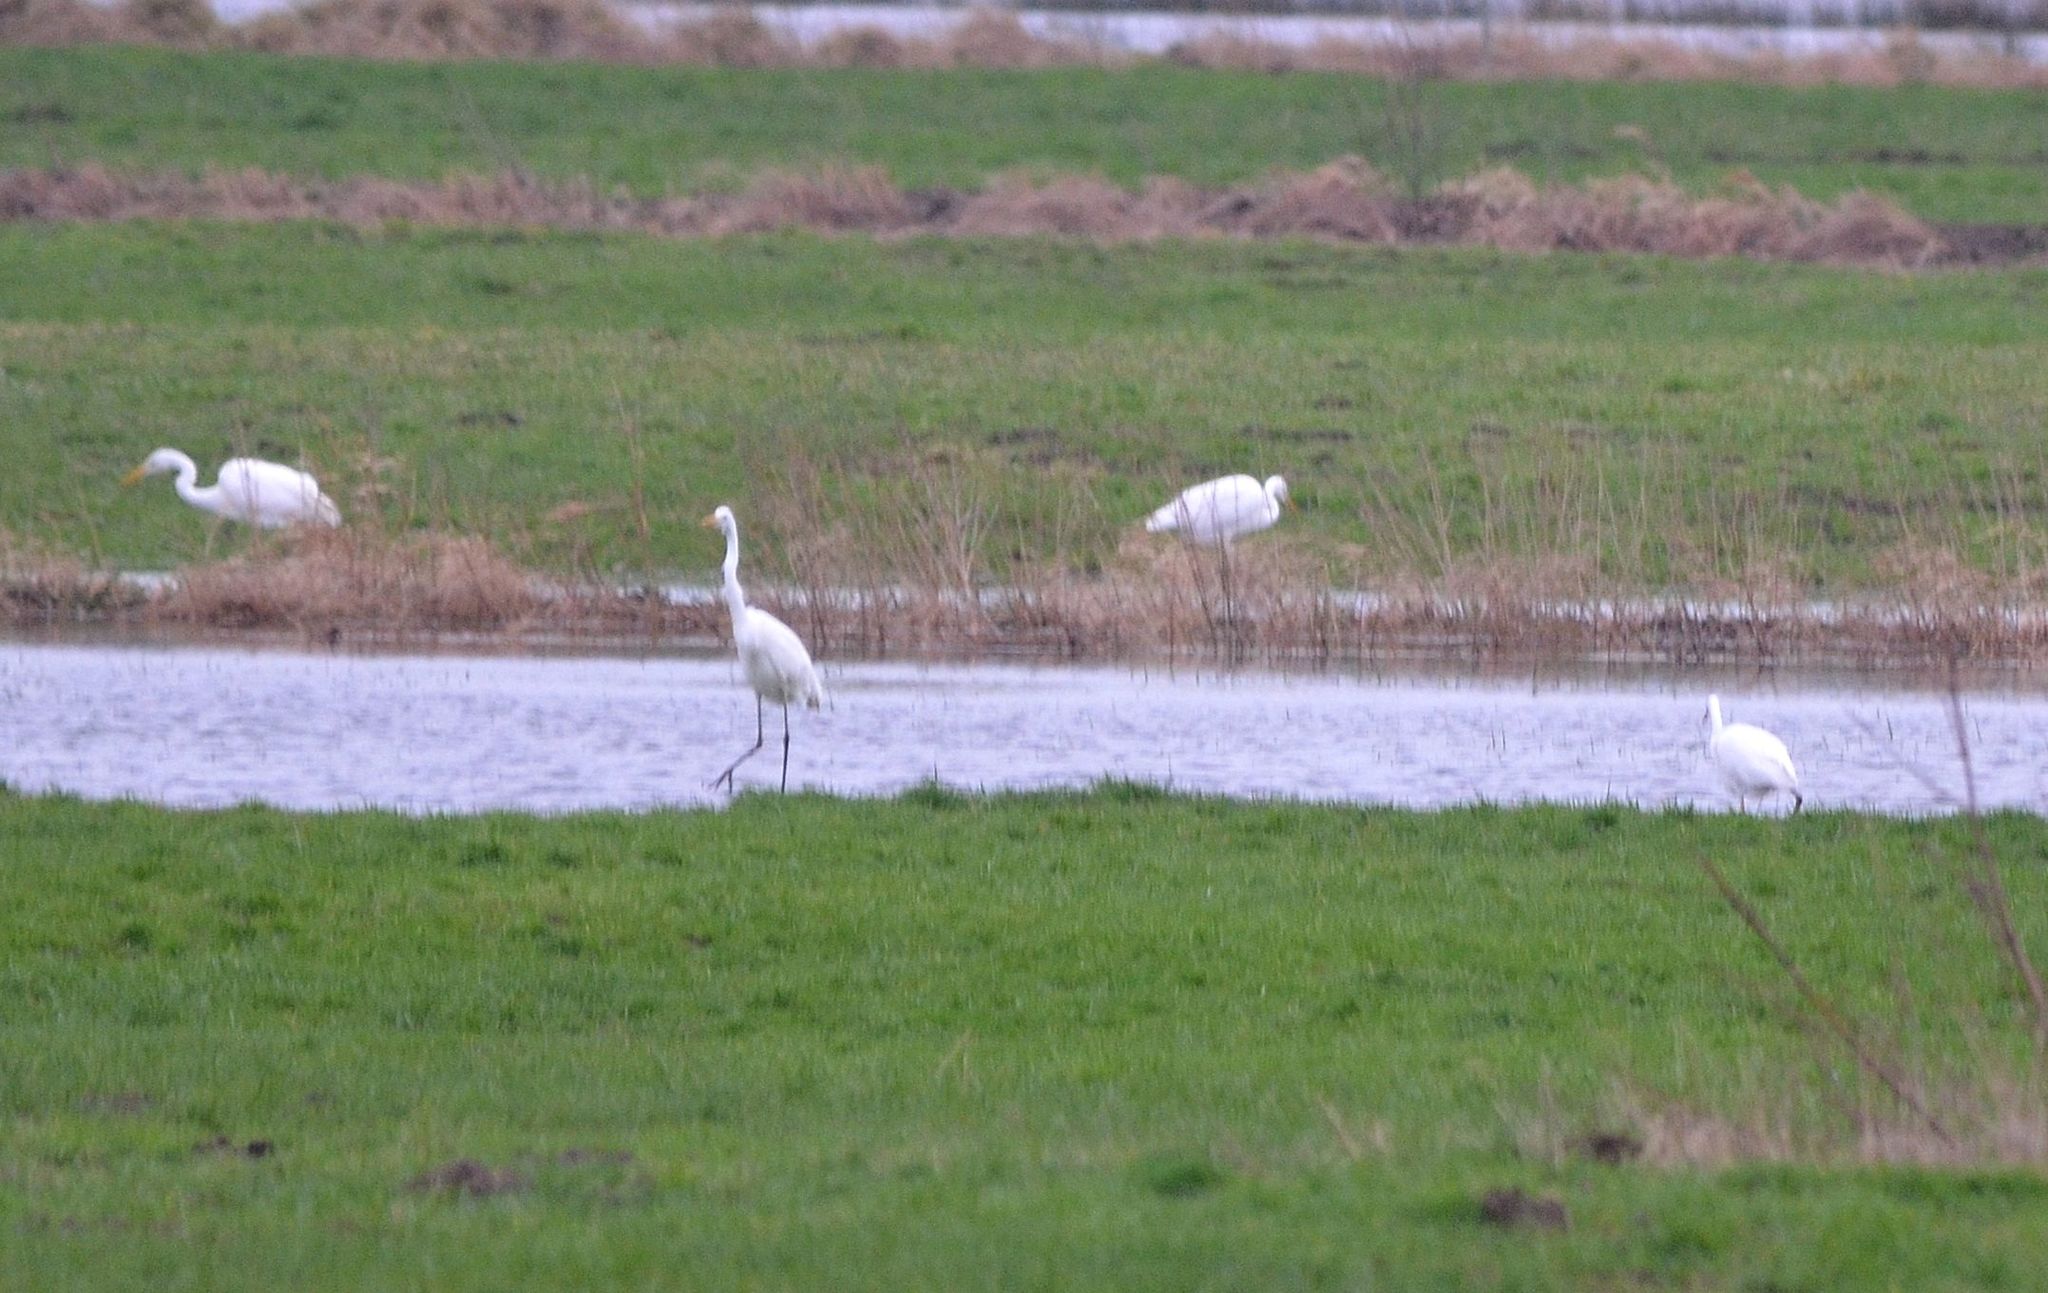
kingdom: Animalia
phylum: Chordata
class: Aves
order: Pelecaniformes
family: Ardeidae
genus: Ardea
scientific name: Ardea alba
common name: Great egret
